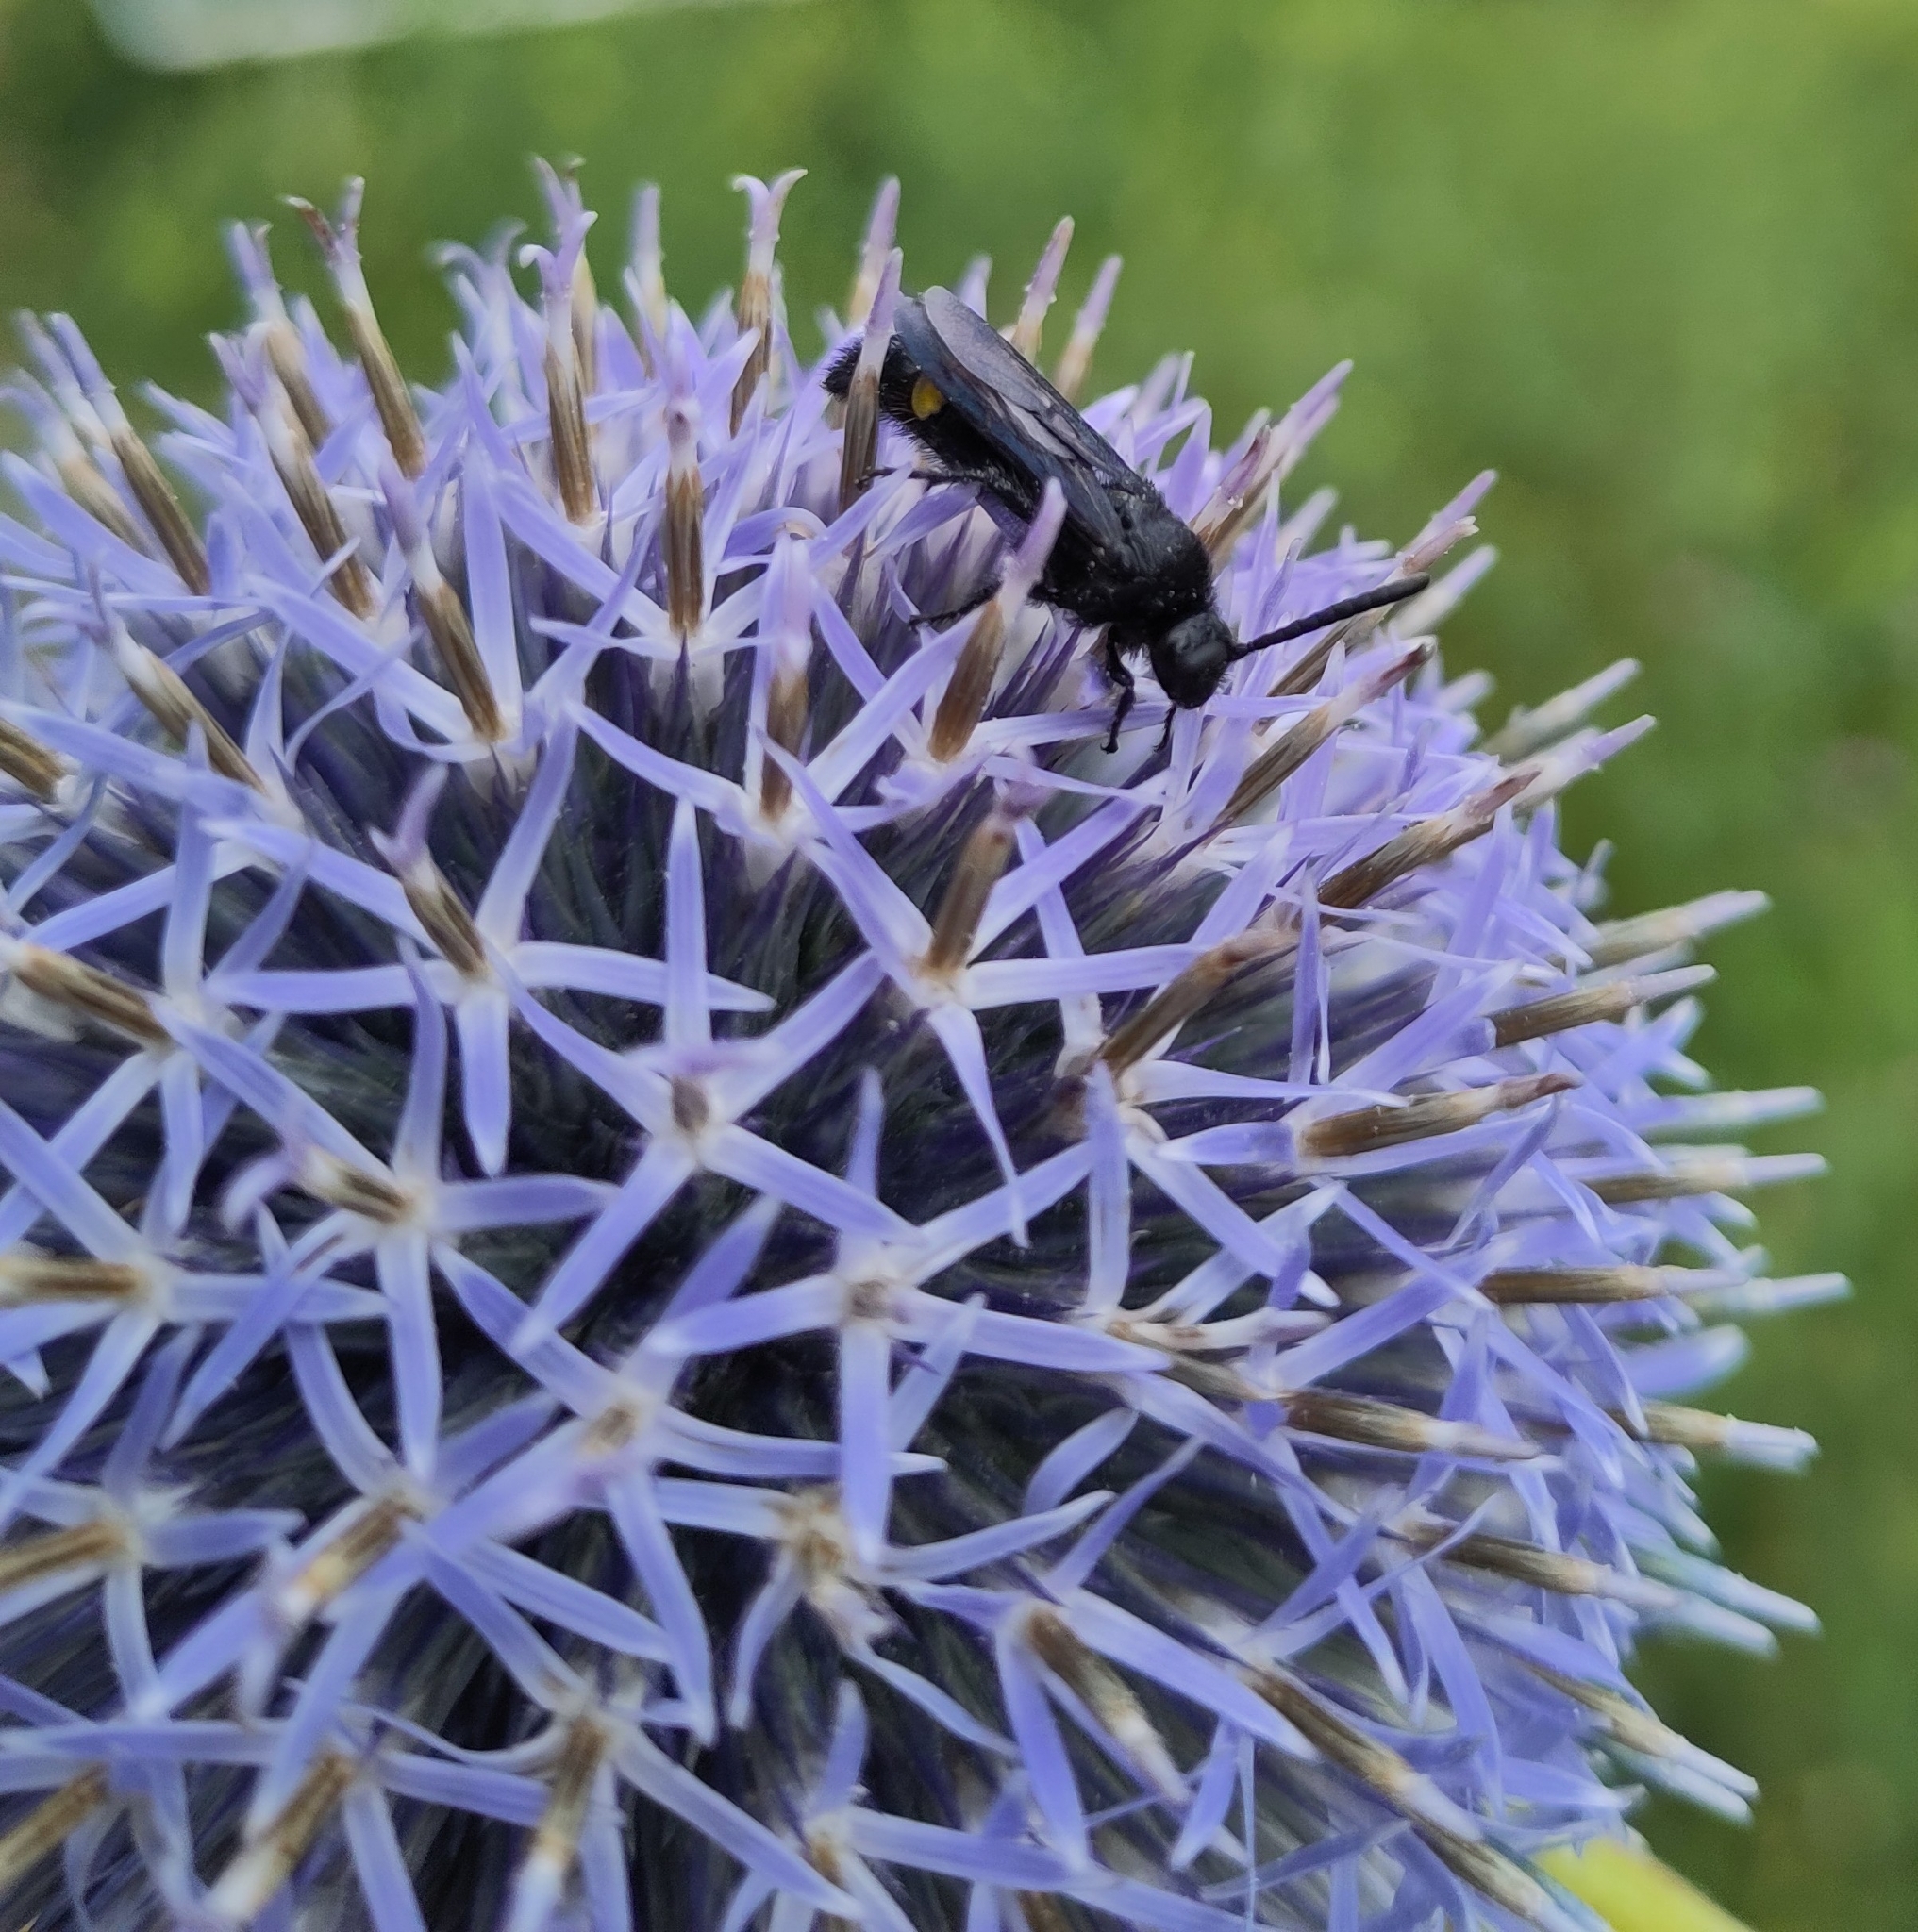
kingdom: Animalia
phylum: Arthropoda
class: Insecta
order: Hymenoptera
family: Scoliidae
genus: Scolia
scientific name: Scolia hirta
